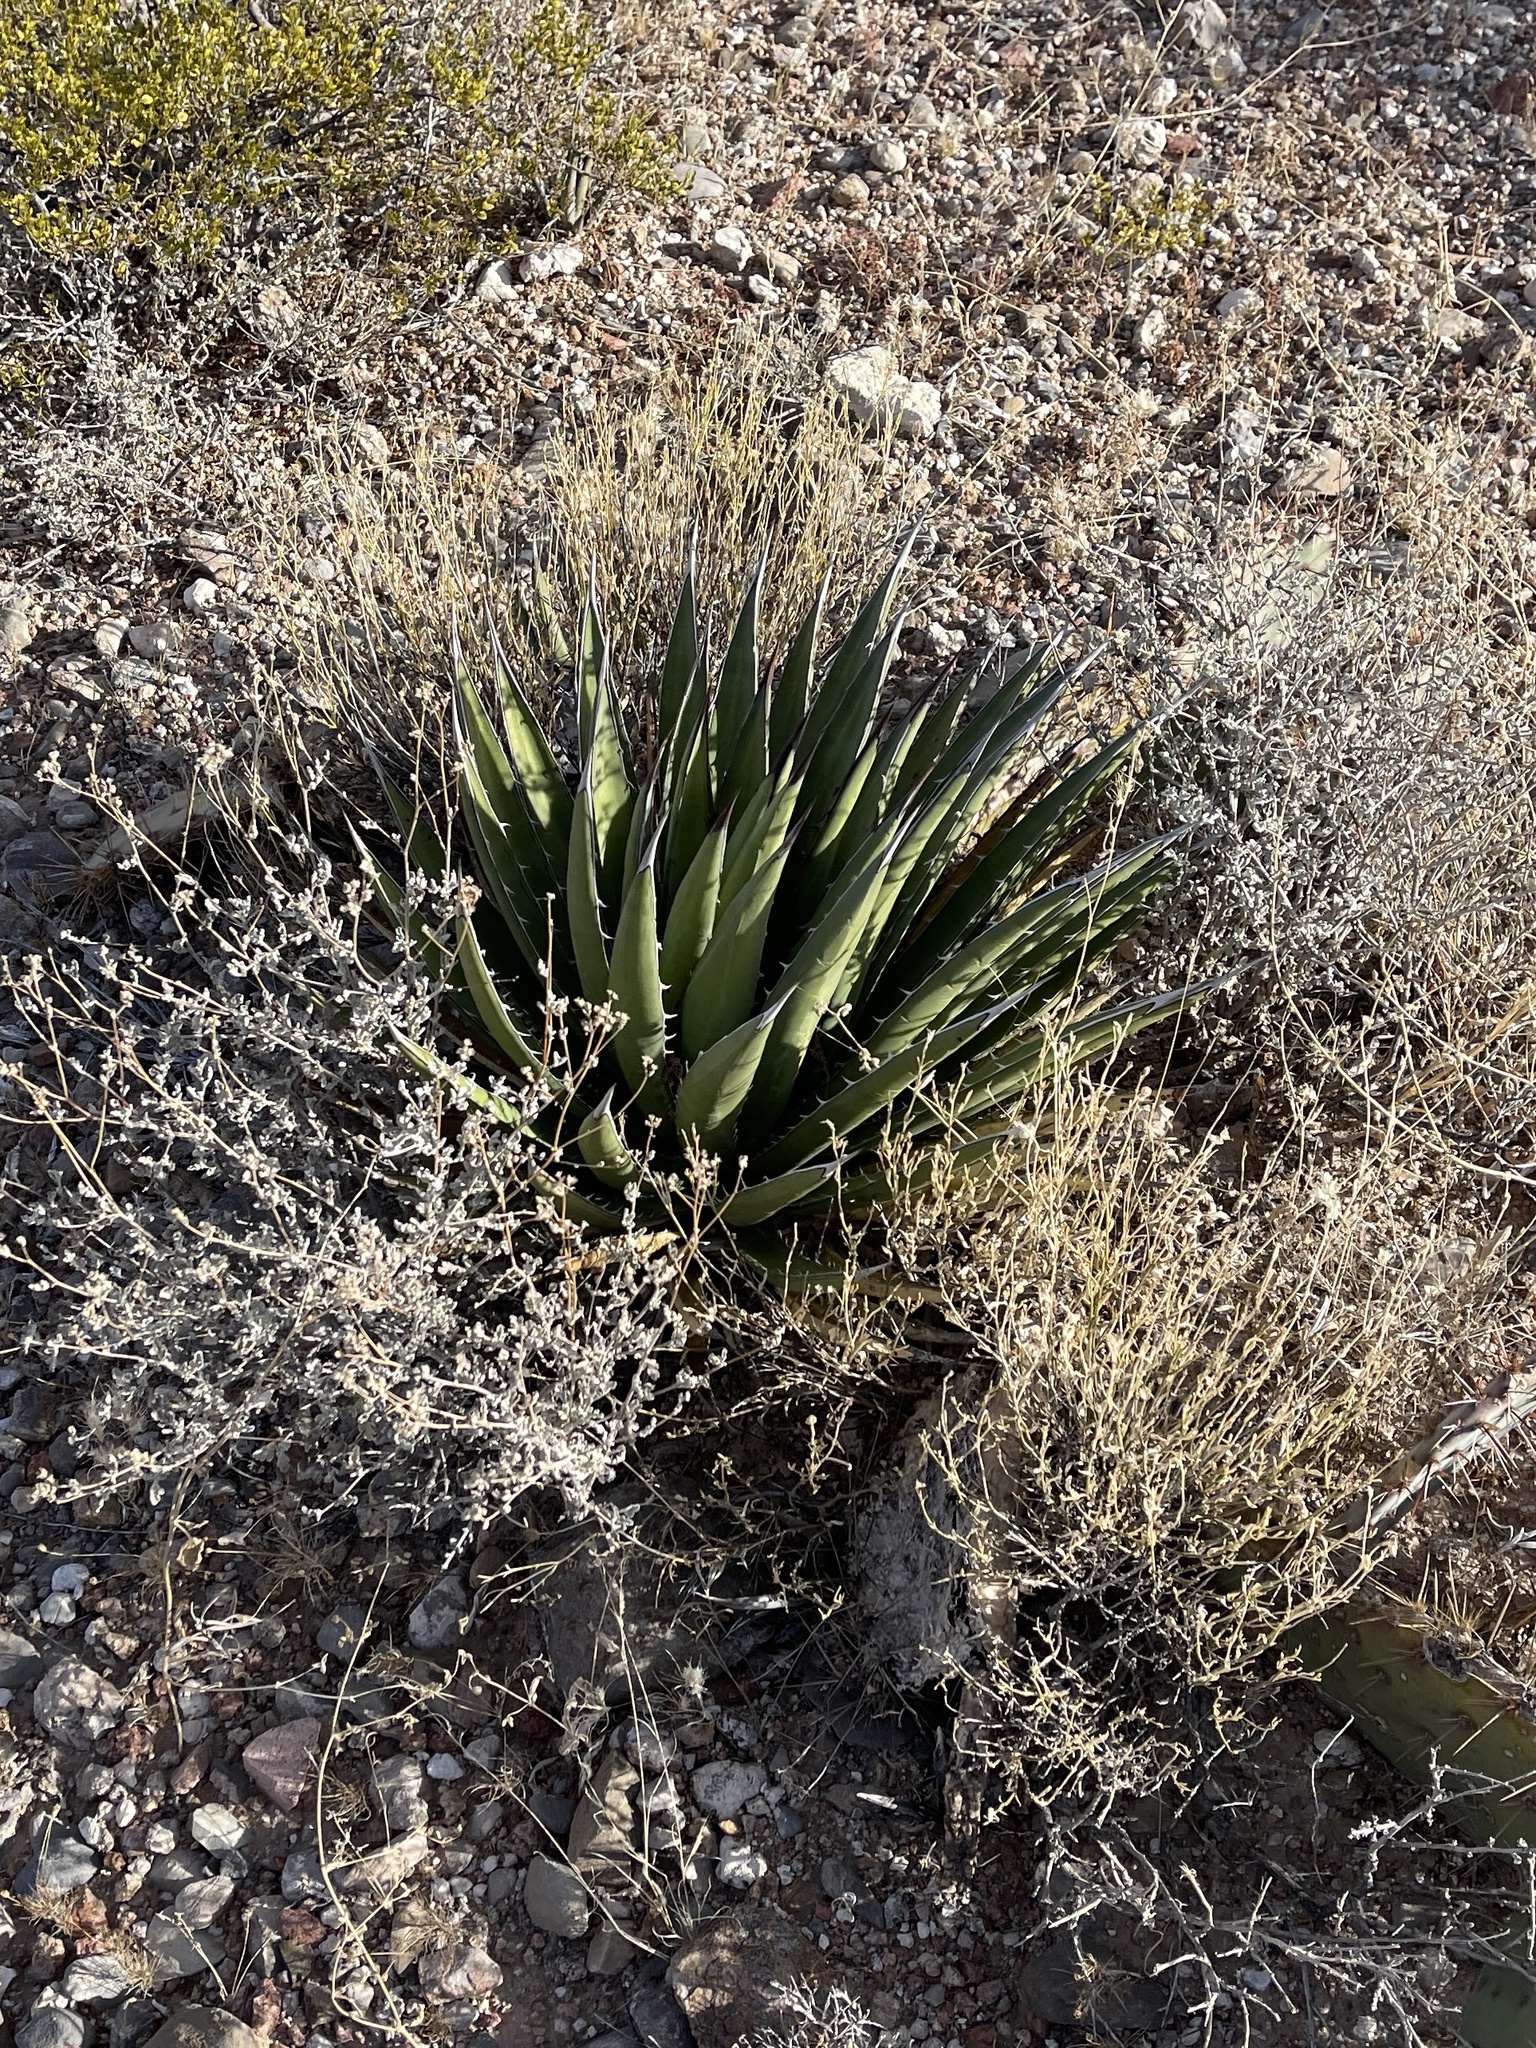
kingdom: Plantae
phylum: Tracheophyta
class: Liliopsida
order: Asparagales
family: Asparagaceae
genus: Agave
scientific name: Agave lechuguilla
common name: Lecheguilla agave
